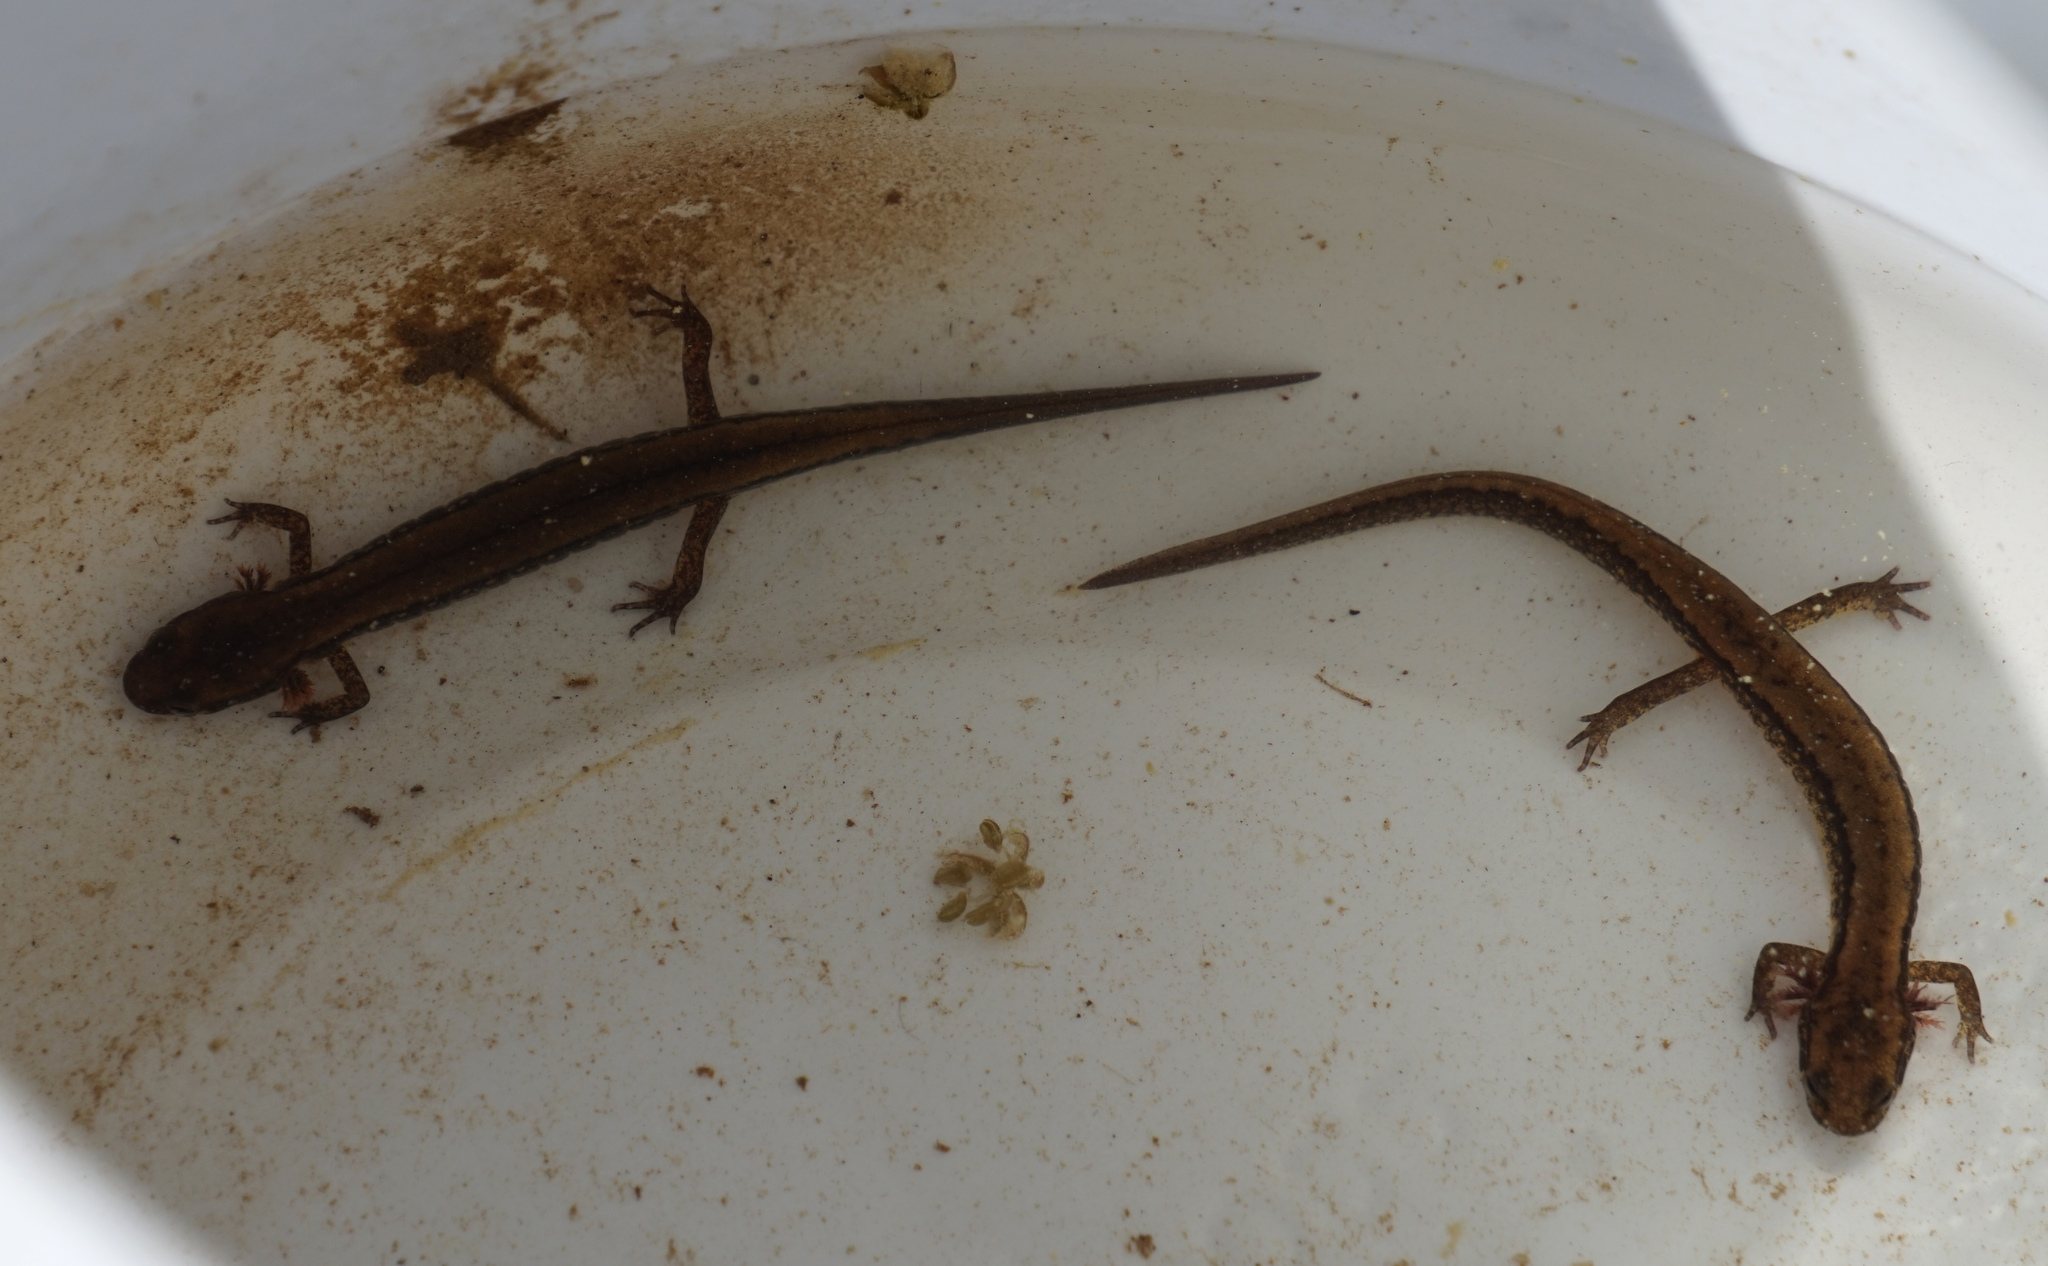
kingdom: Animalia
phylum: Chordata
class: Amphibia
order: Caudata
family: Plethodontidae
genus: Eurycea
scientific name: Eurycea cirrigera
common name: Southern two-lined salamander
